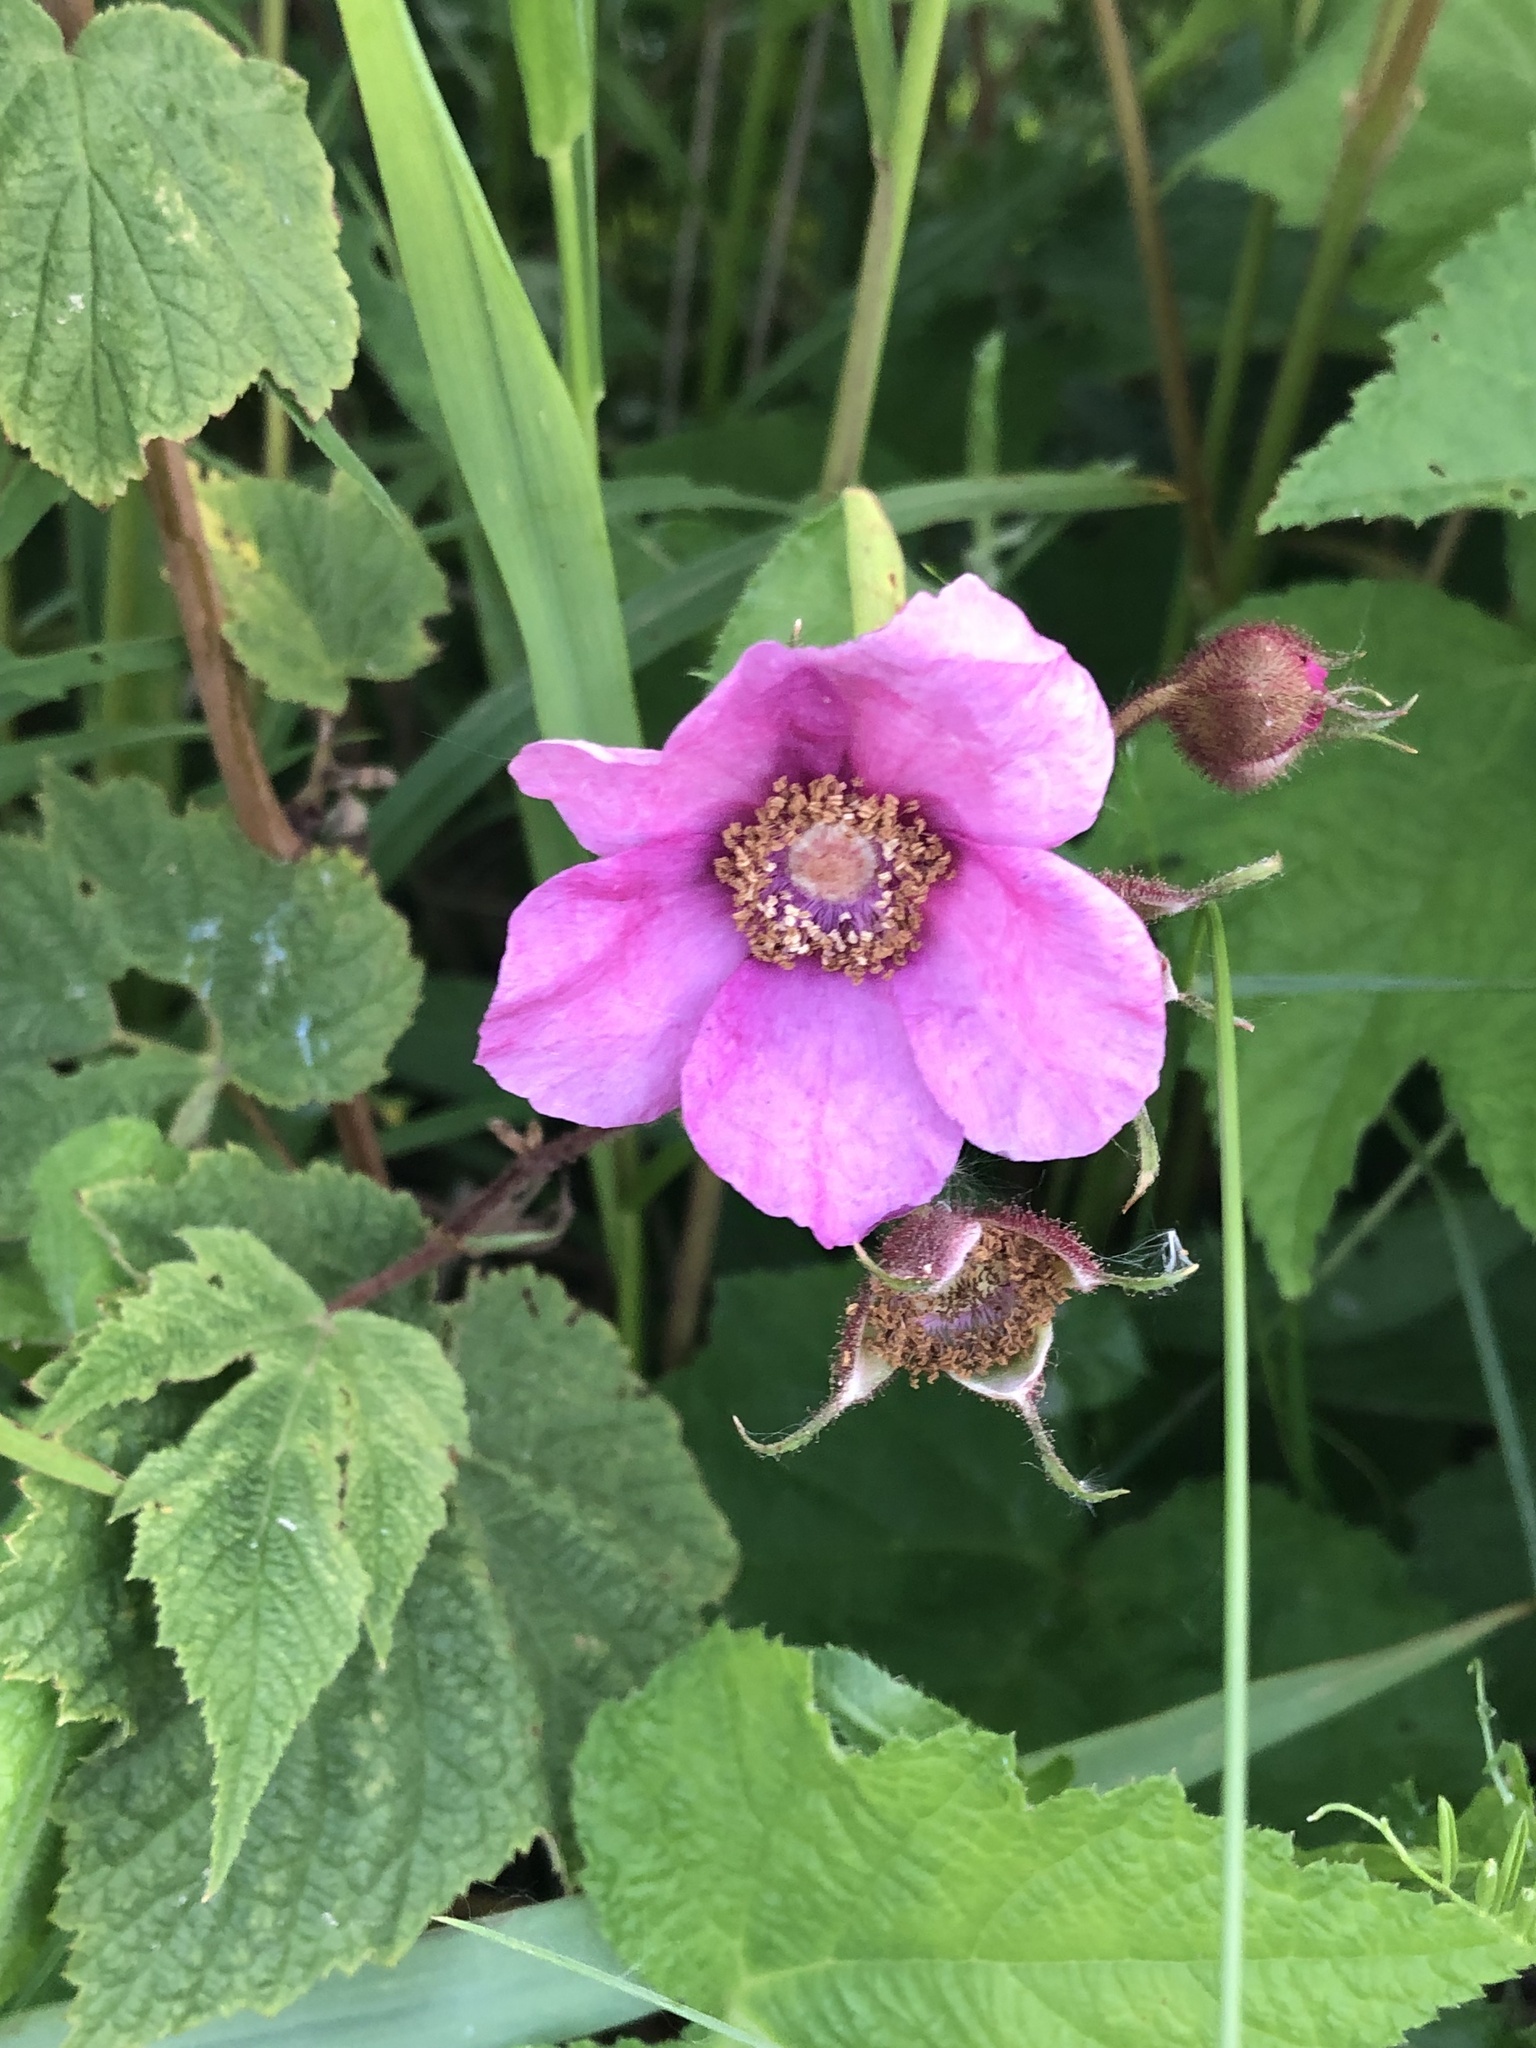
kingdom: Plantae
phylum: Tracheophyta
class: Magnoliopsida
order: Rosales
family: Rosaceae
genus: Rubus
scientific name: Rubus odoratus
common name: Purple-flowered raspberry
